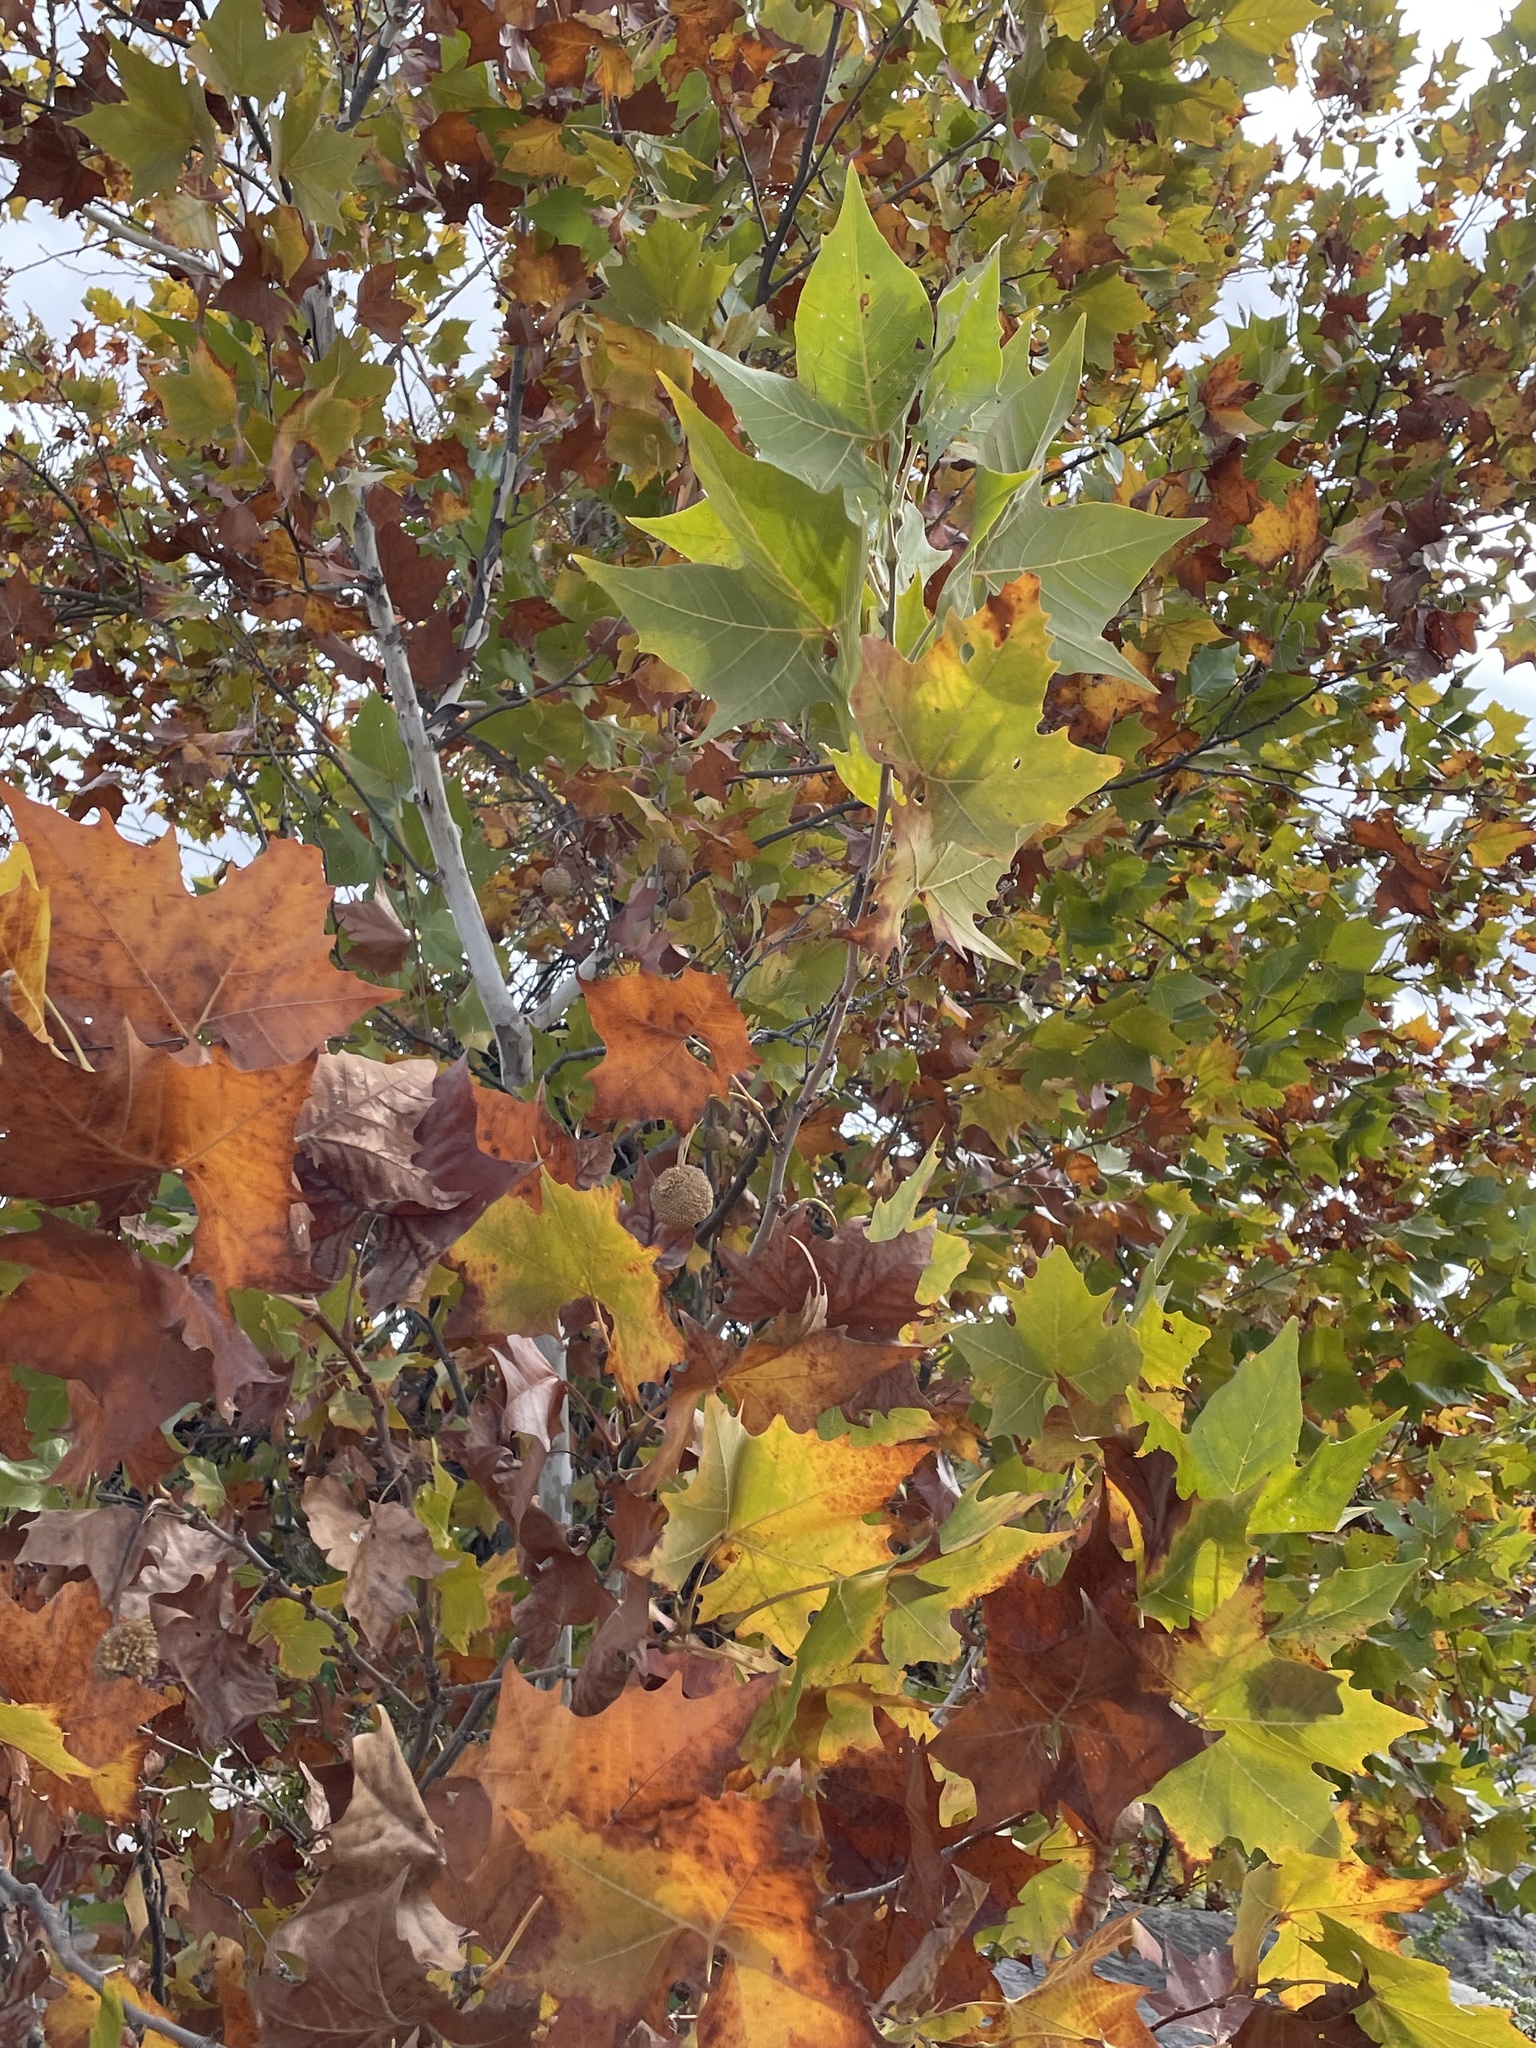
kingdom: Plantae
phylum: Tracheophyta
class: Magnoliopsida
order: Proteales
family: Platanaceae
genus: Platanus
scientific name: Platanus occidentalis
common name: American sycamore
